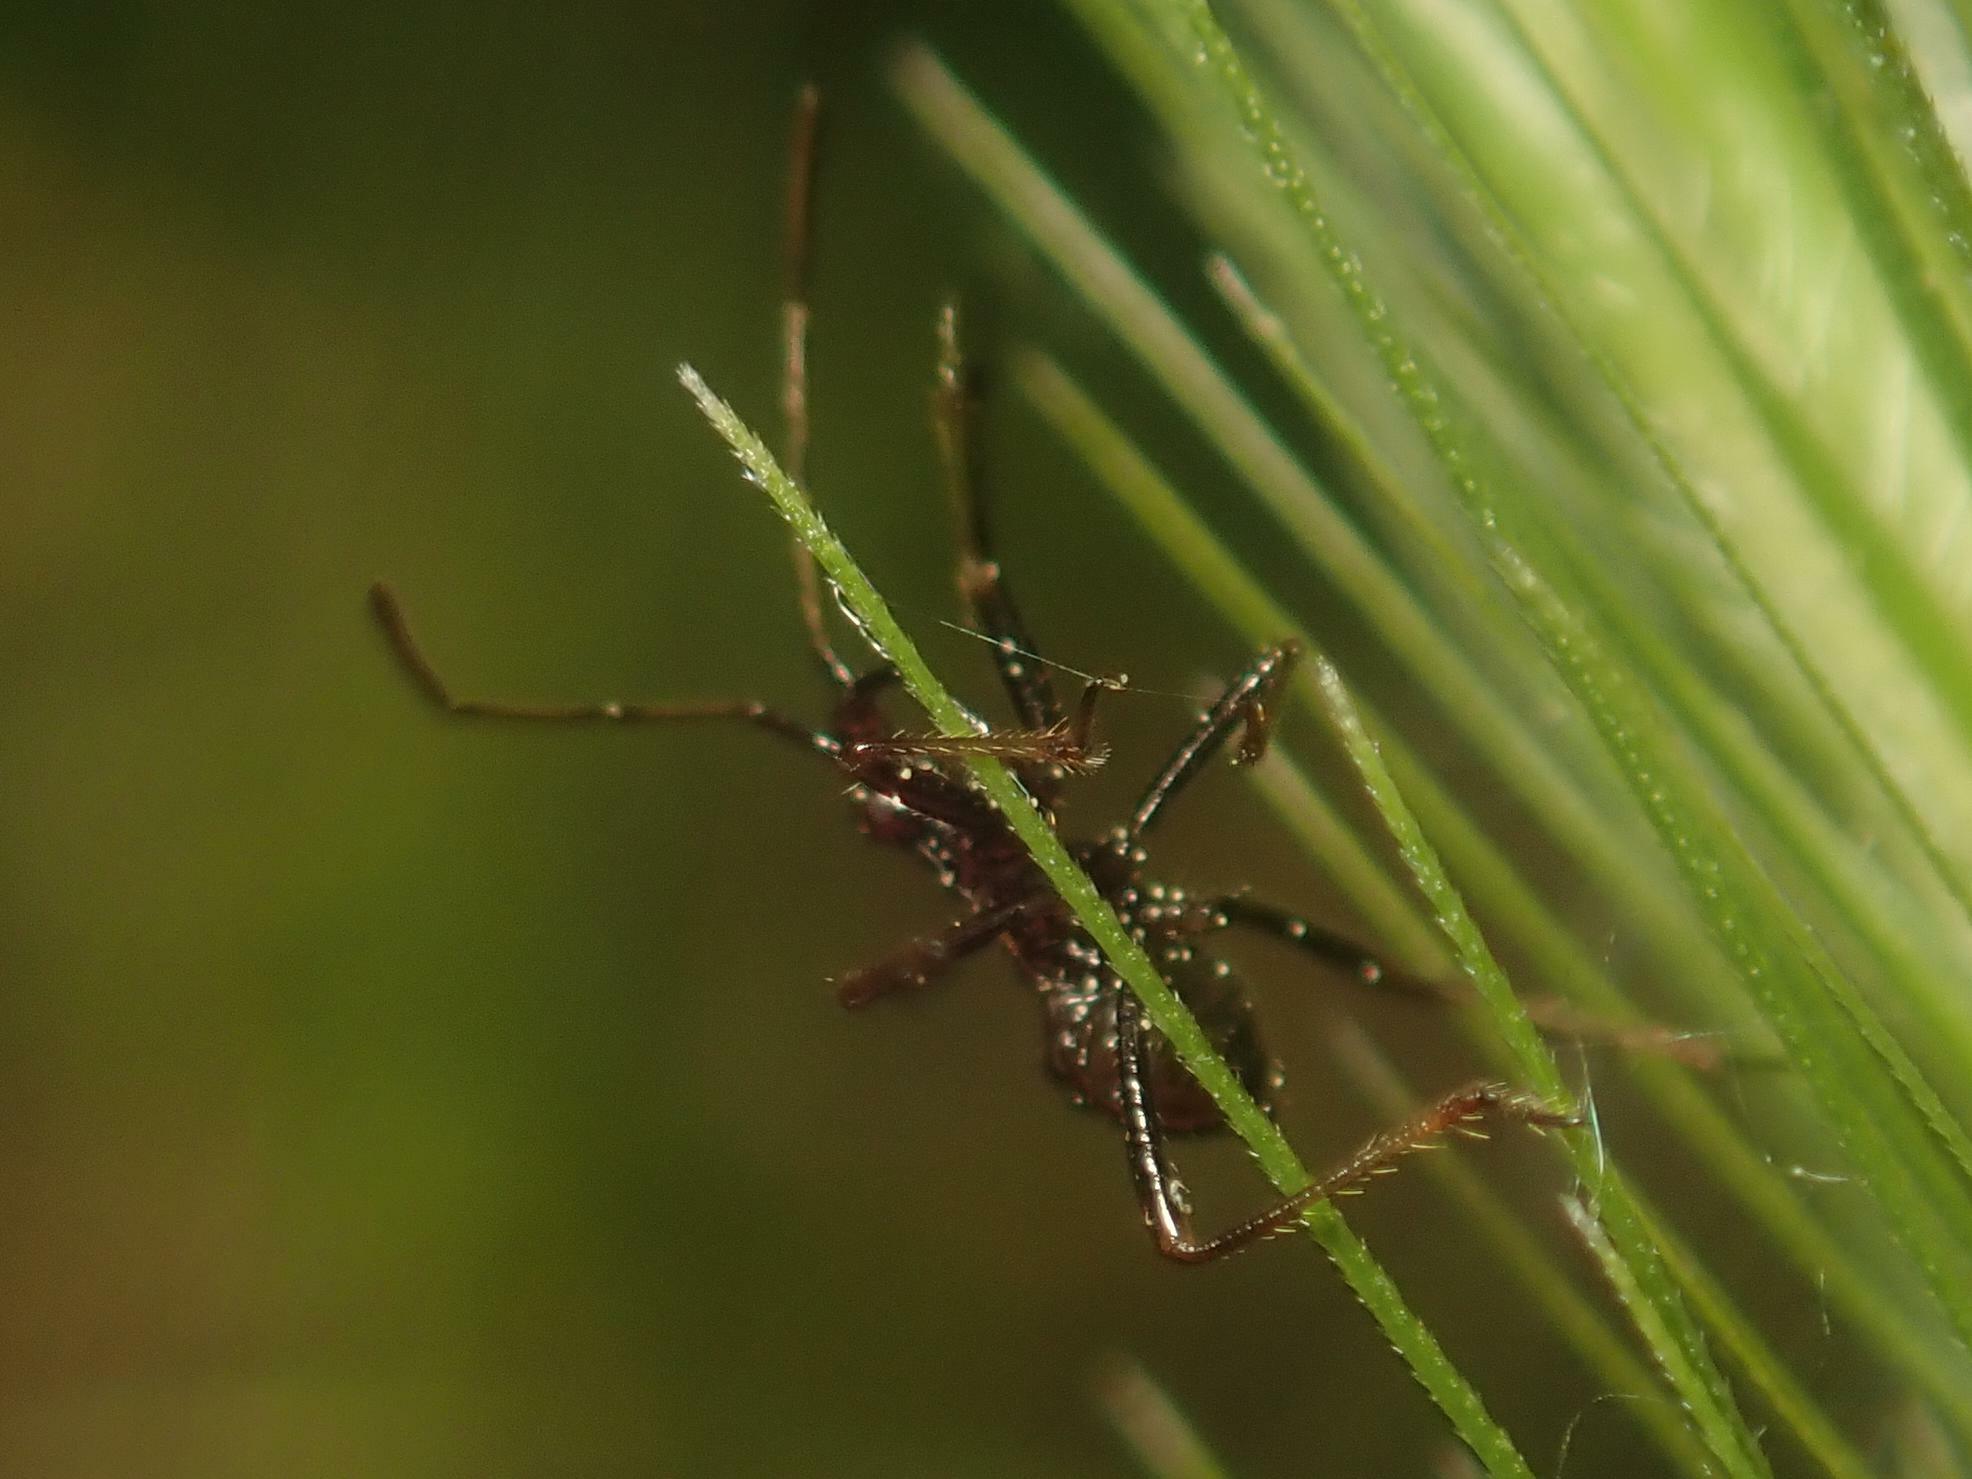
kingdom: Animalia
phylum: Arthropoda
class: Insecta
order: Hemiptera
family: Nabidae
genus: Himacerus
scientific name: Himacerus apterus
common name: Tree damsel bug
